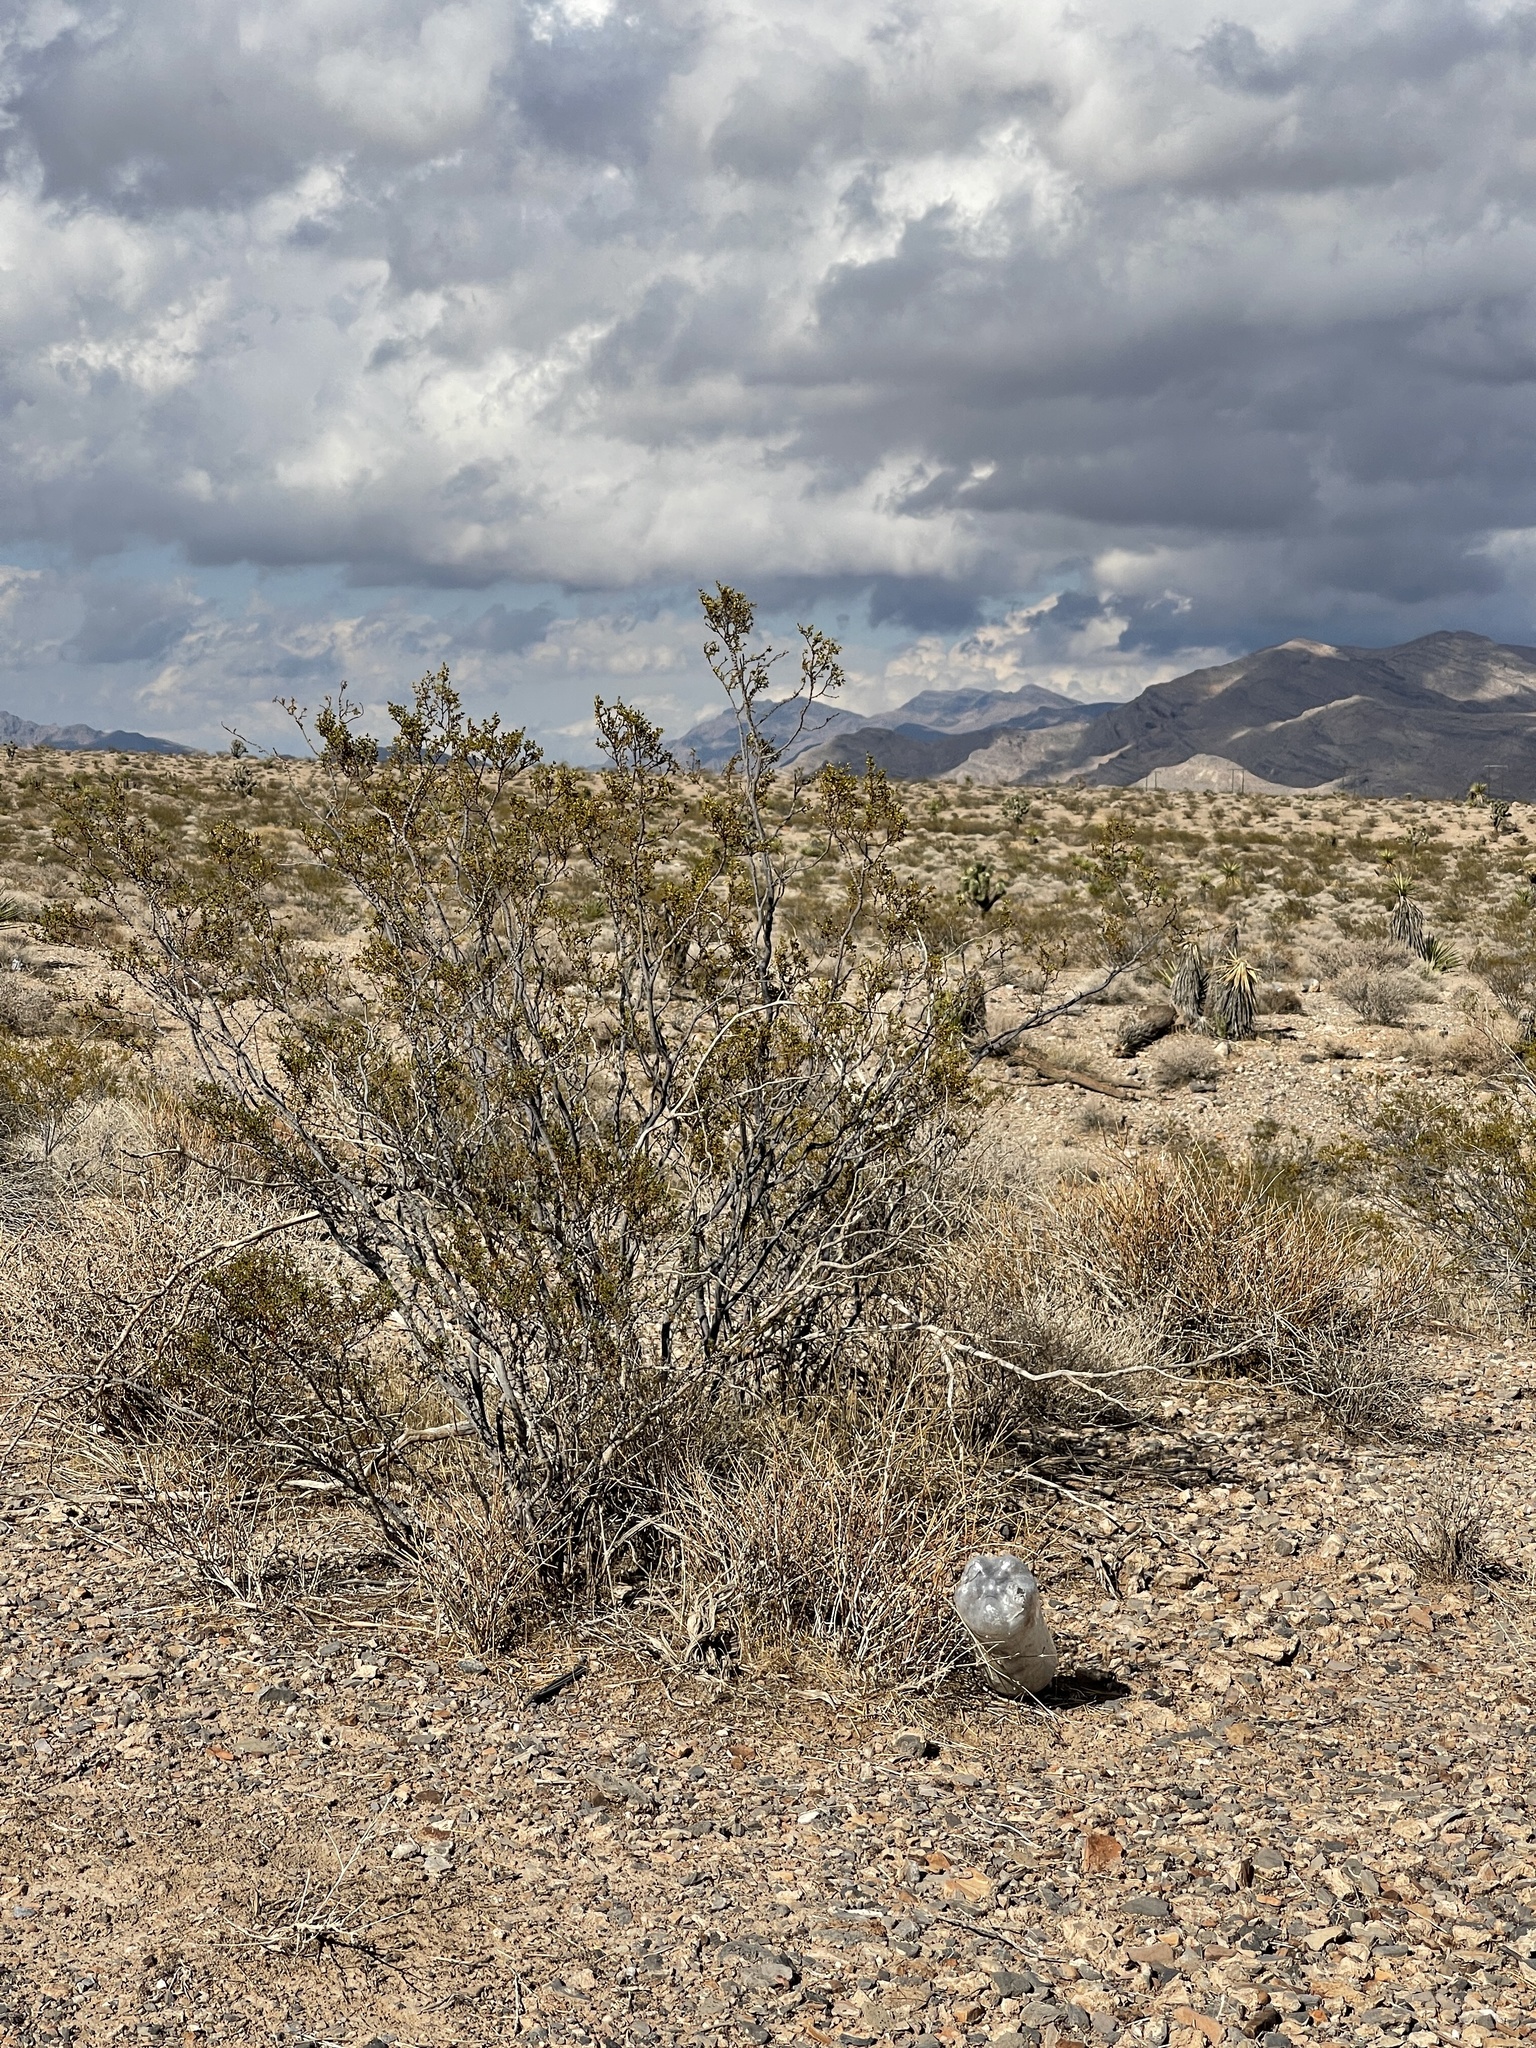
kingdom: Plantae
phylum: Tracheophyta
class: Magnoliopsida
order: Zygophyllales
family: Zygophyllaceae
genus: Larrea
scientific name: Larrea tridentata
